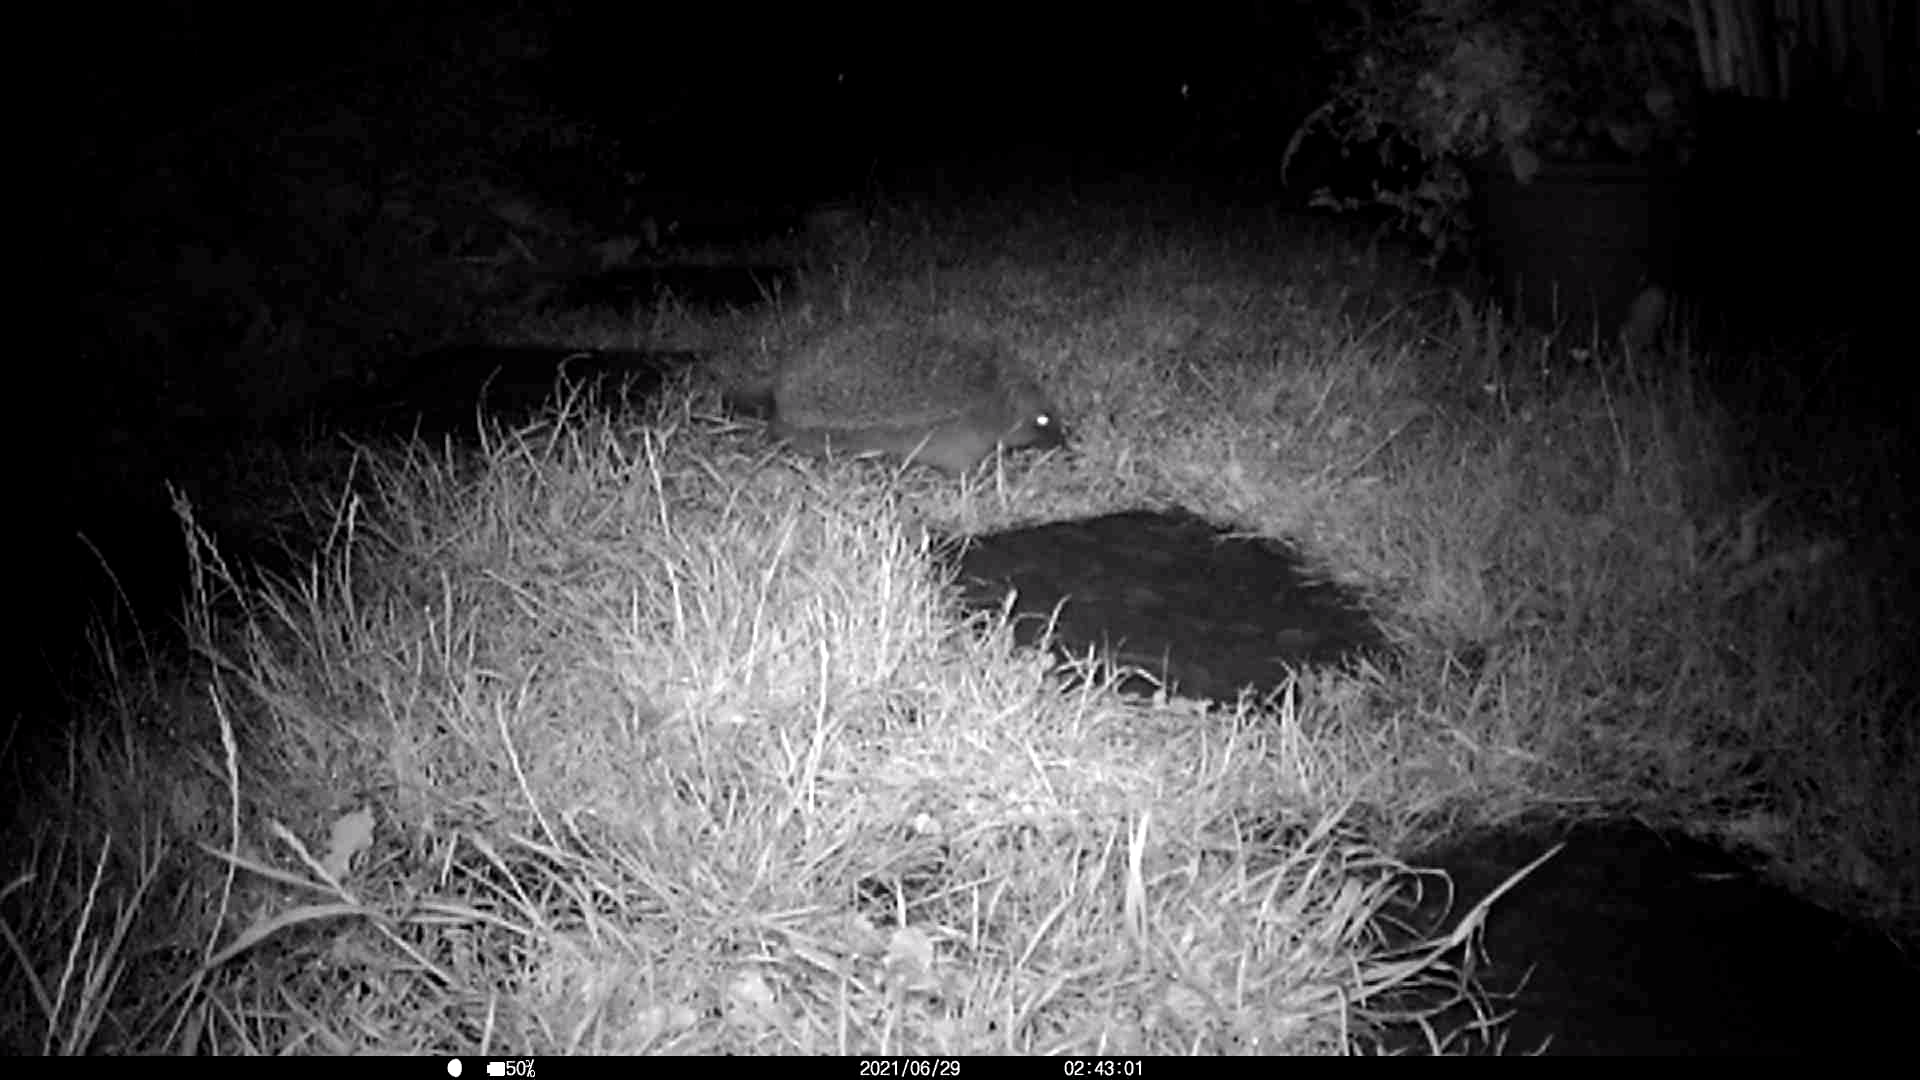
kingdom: Animalia
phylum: Chordata
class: Mammalia
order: Erinaceomorpha
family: Erinaceidae
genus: Erinaceus
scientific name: Erinaceus europaeus
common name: West european hedgehog
